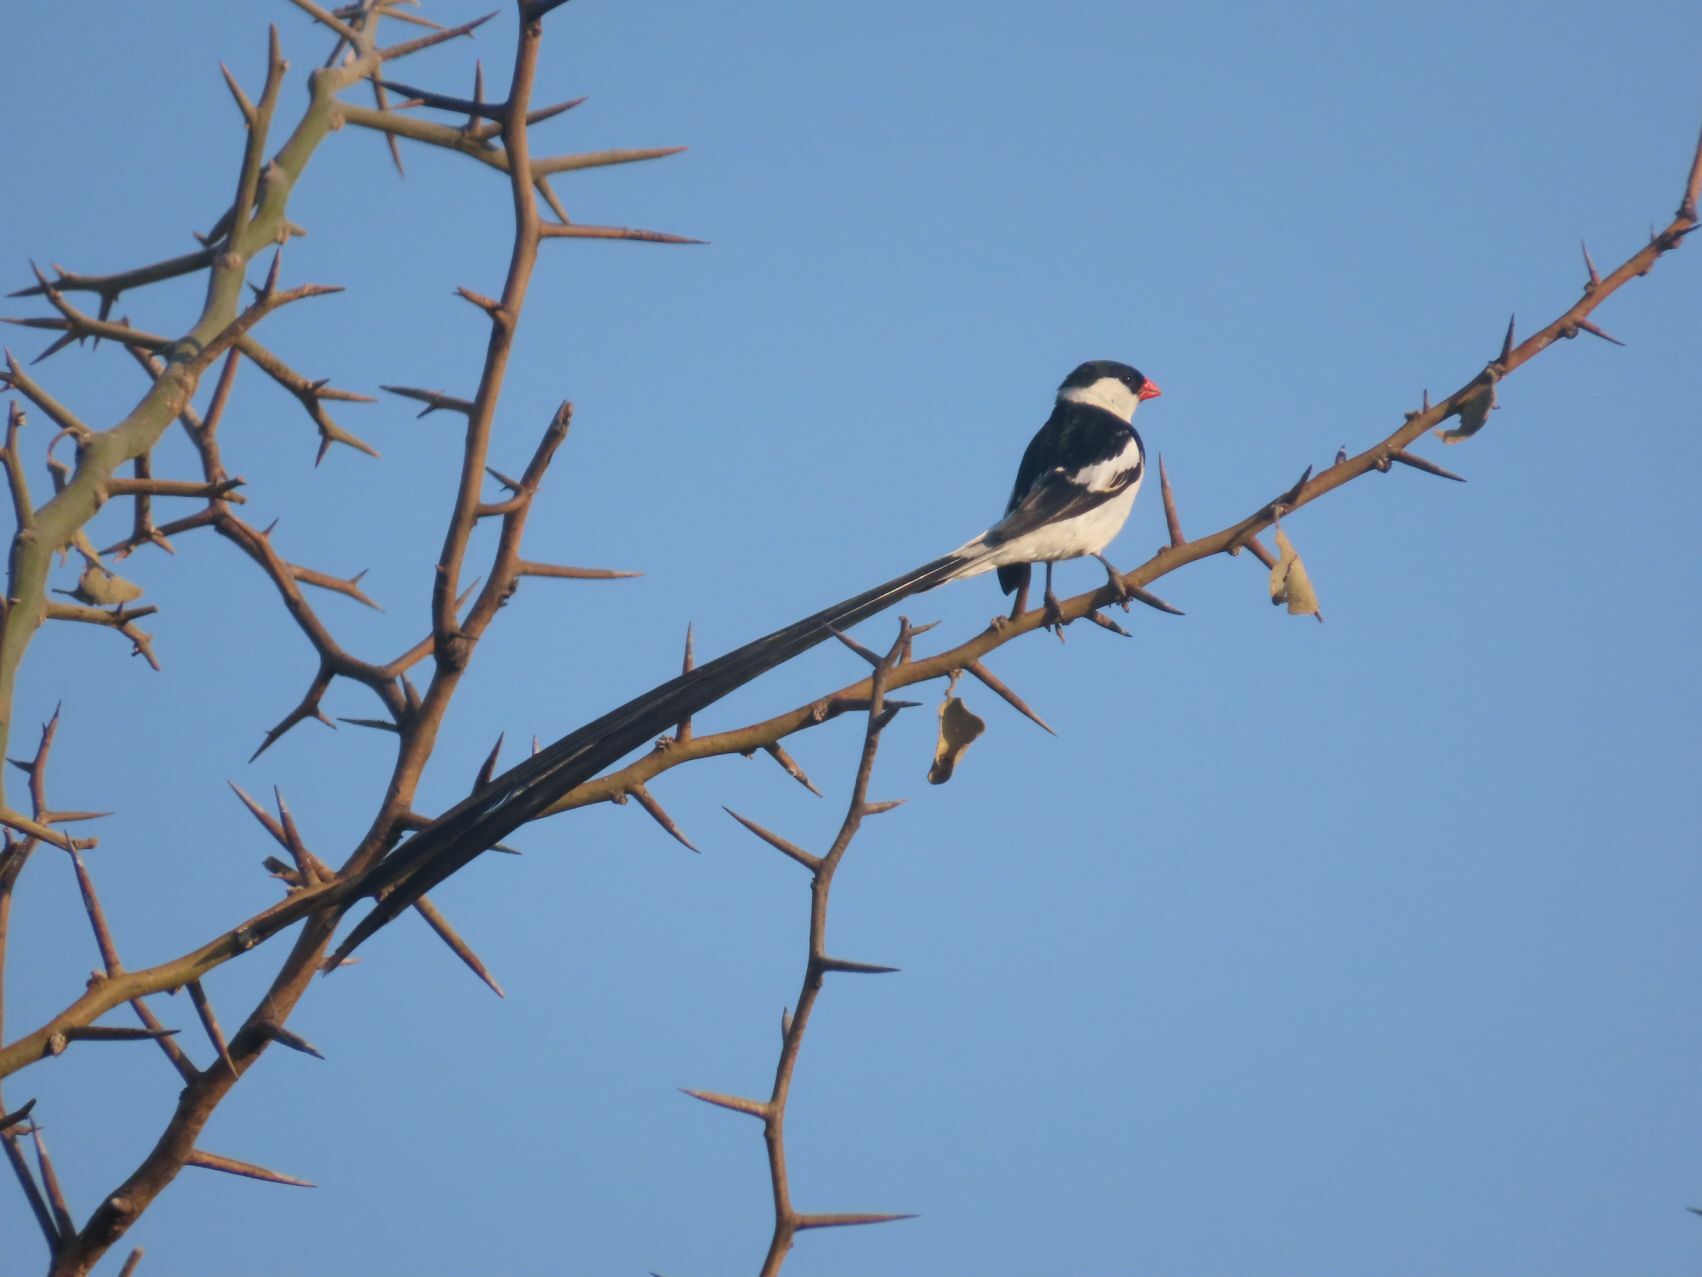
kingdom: Animalia
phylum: Chordata
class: Aves
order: Passeriformes
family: Viduidae
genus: Vidua
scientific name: Vidua macroura
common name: Pin-tailed whydah
